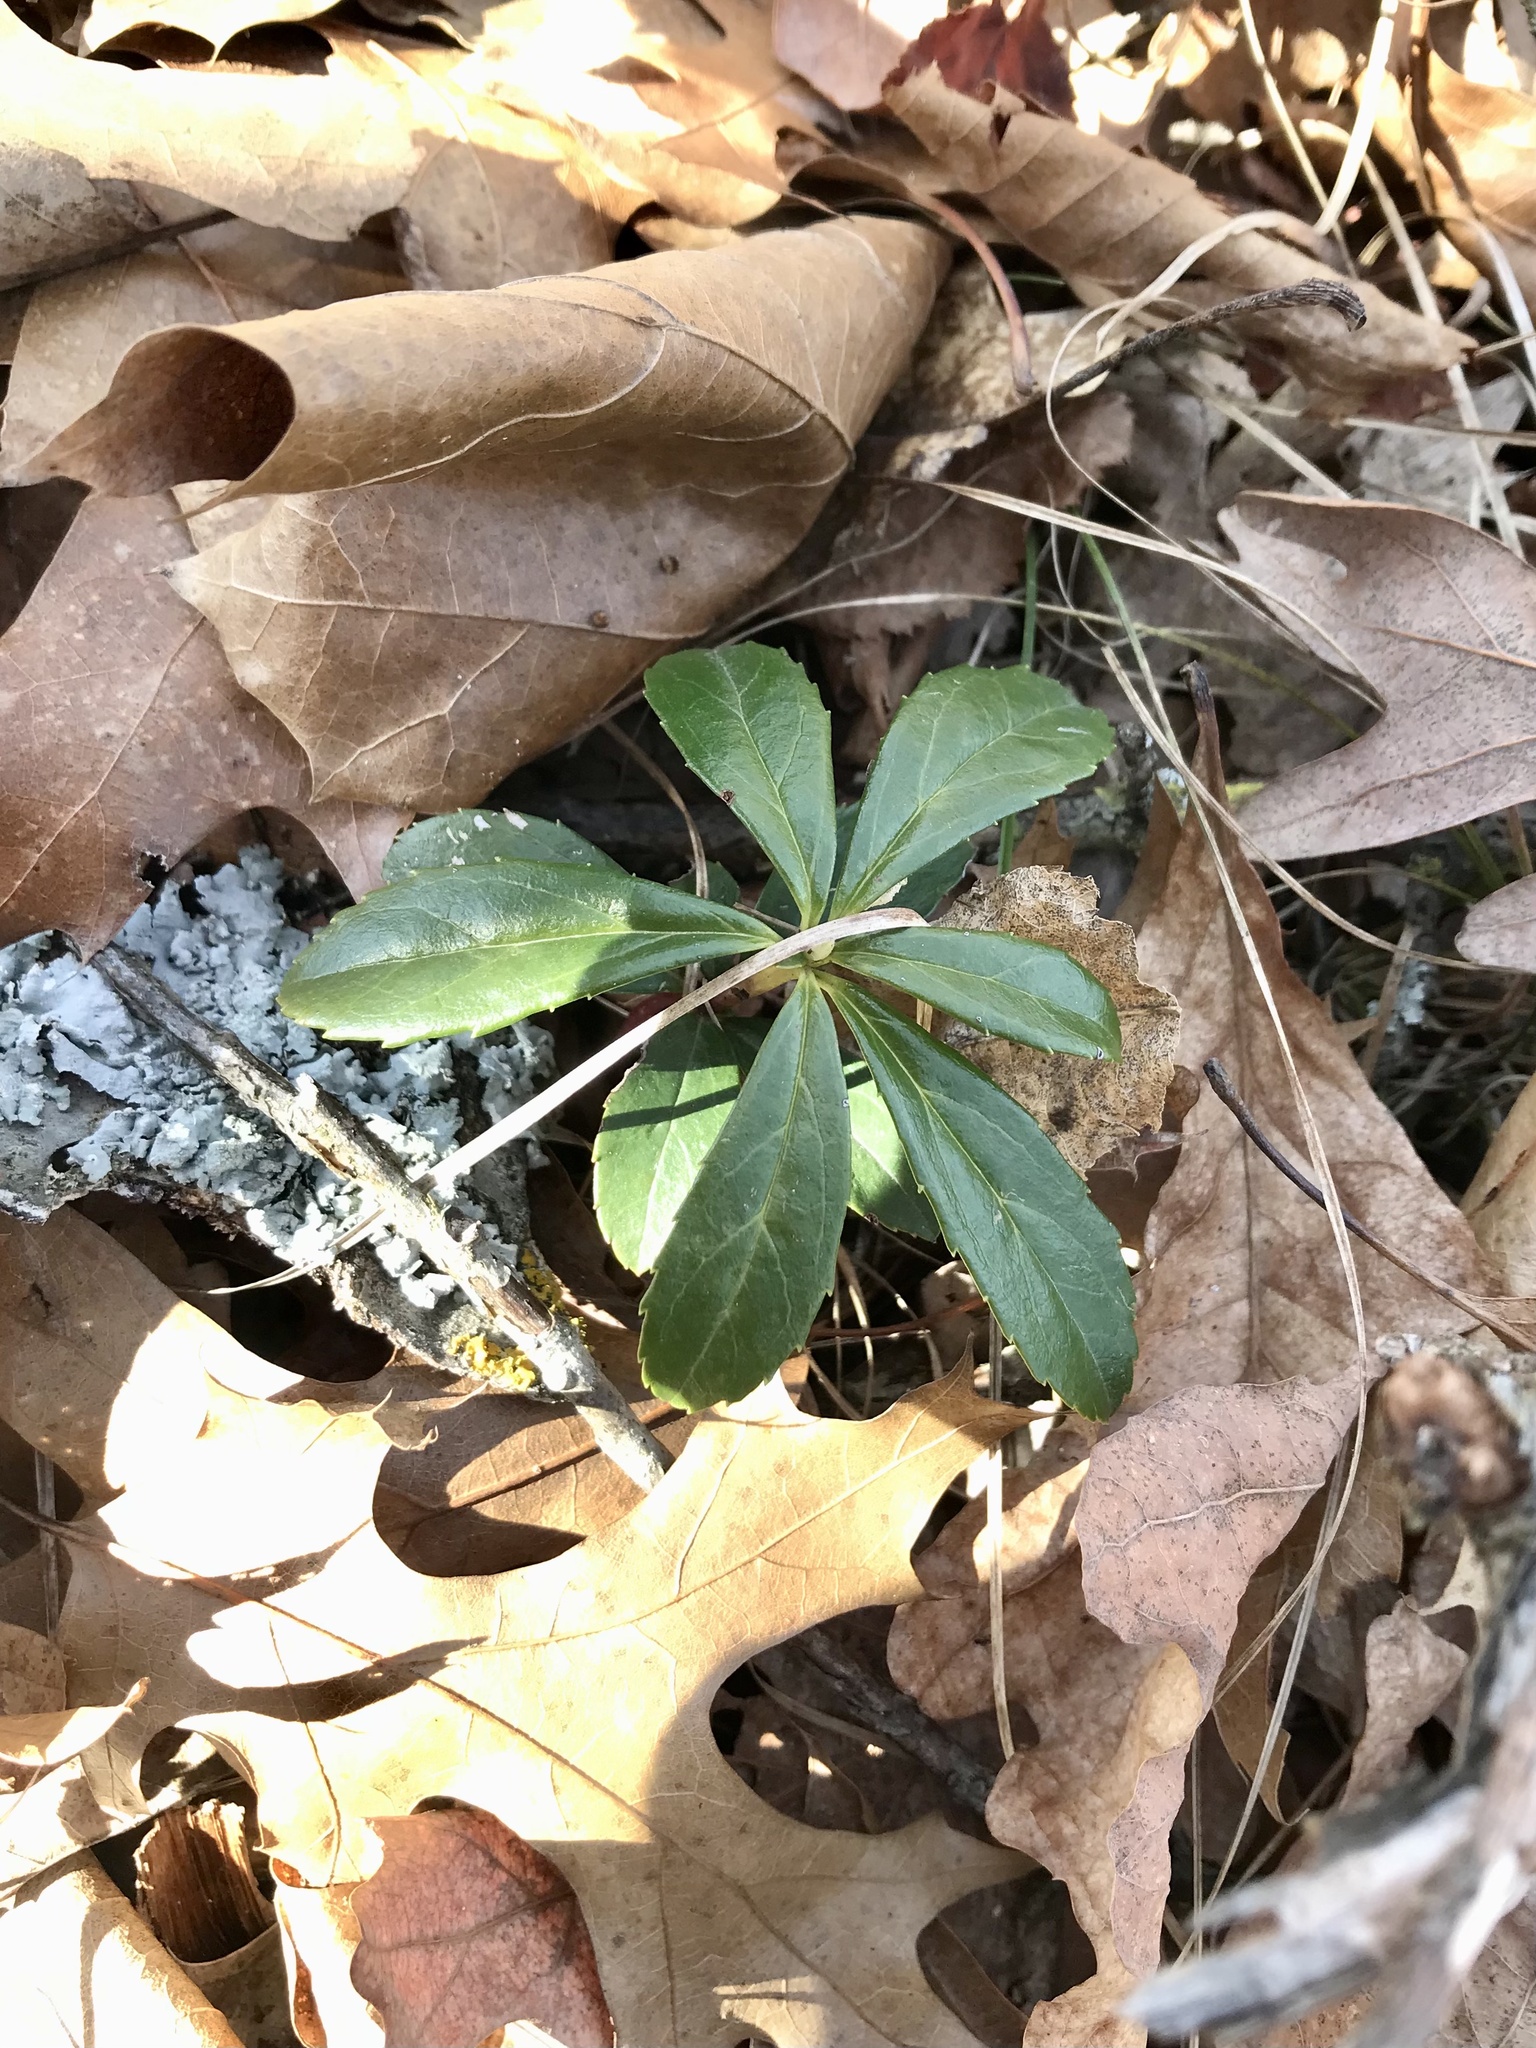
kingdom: Plantae
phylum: Tracheophyta
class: Magnoliopsida
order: Ericales
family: Ericaceae
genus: Chimaphila
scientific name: Chimaphila umbellata
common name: Pipsissewa
